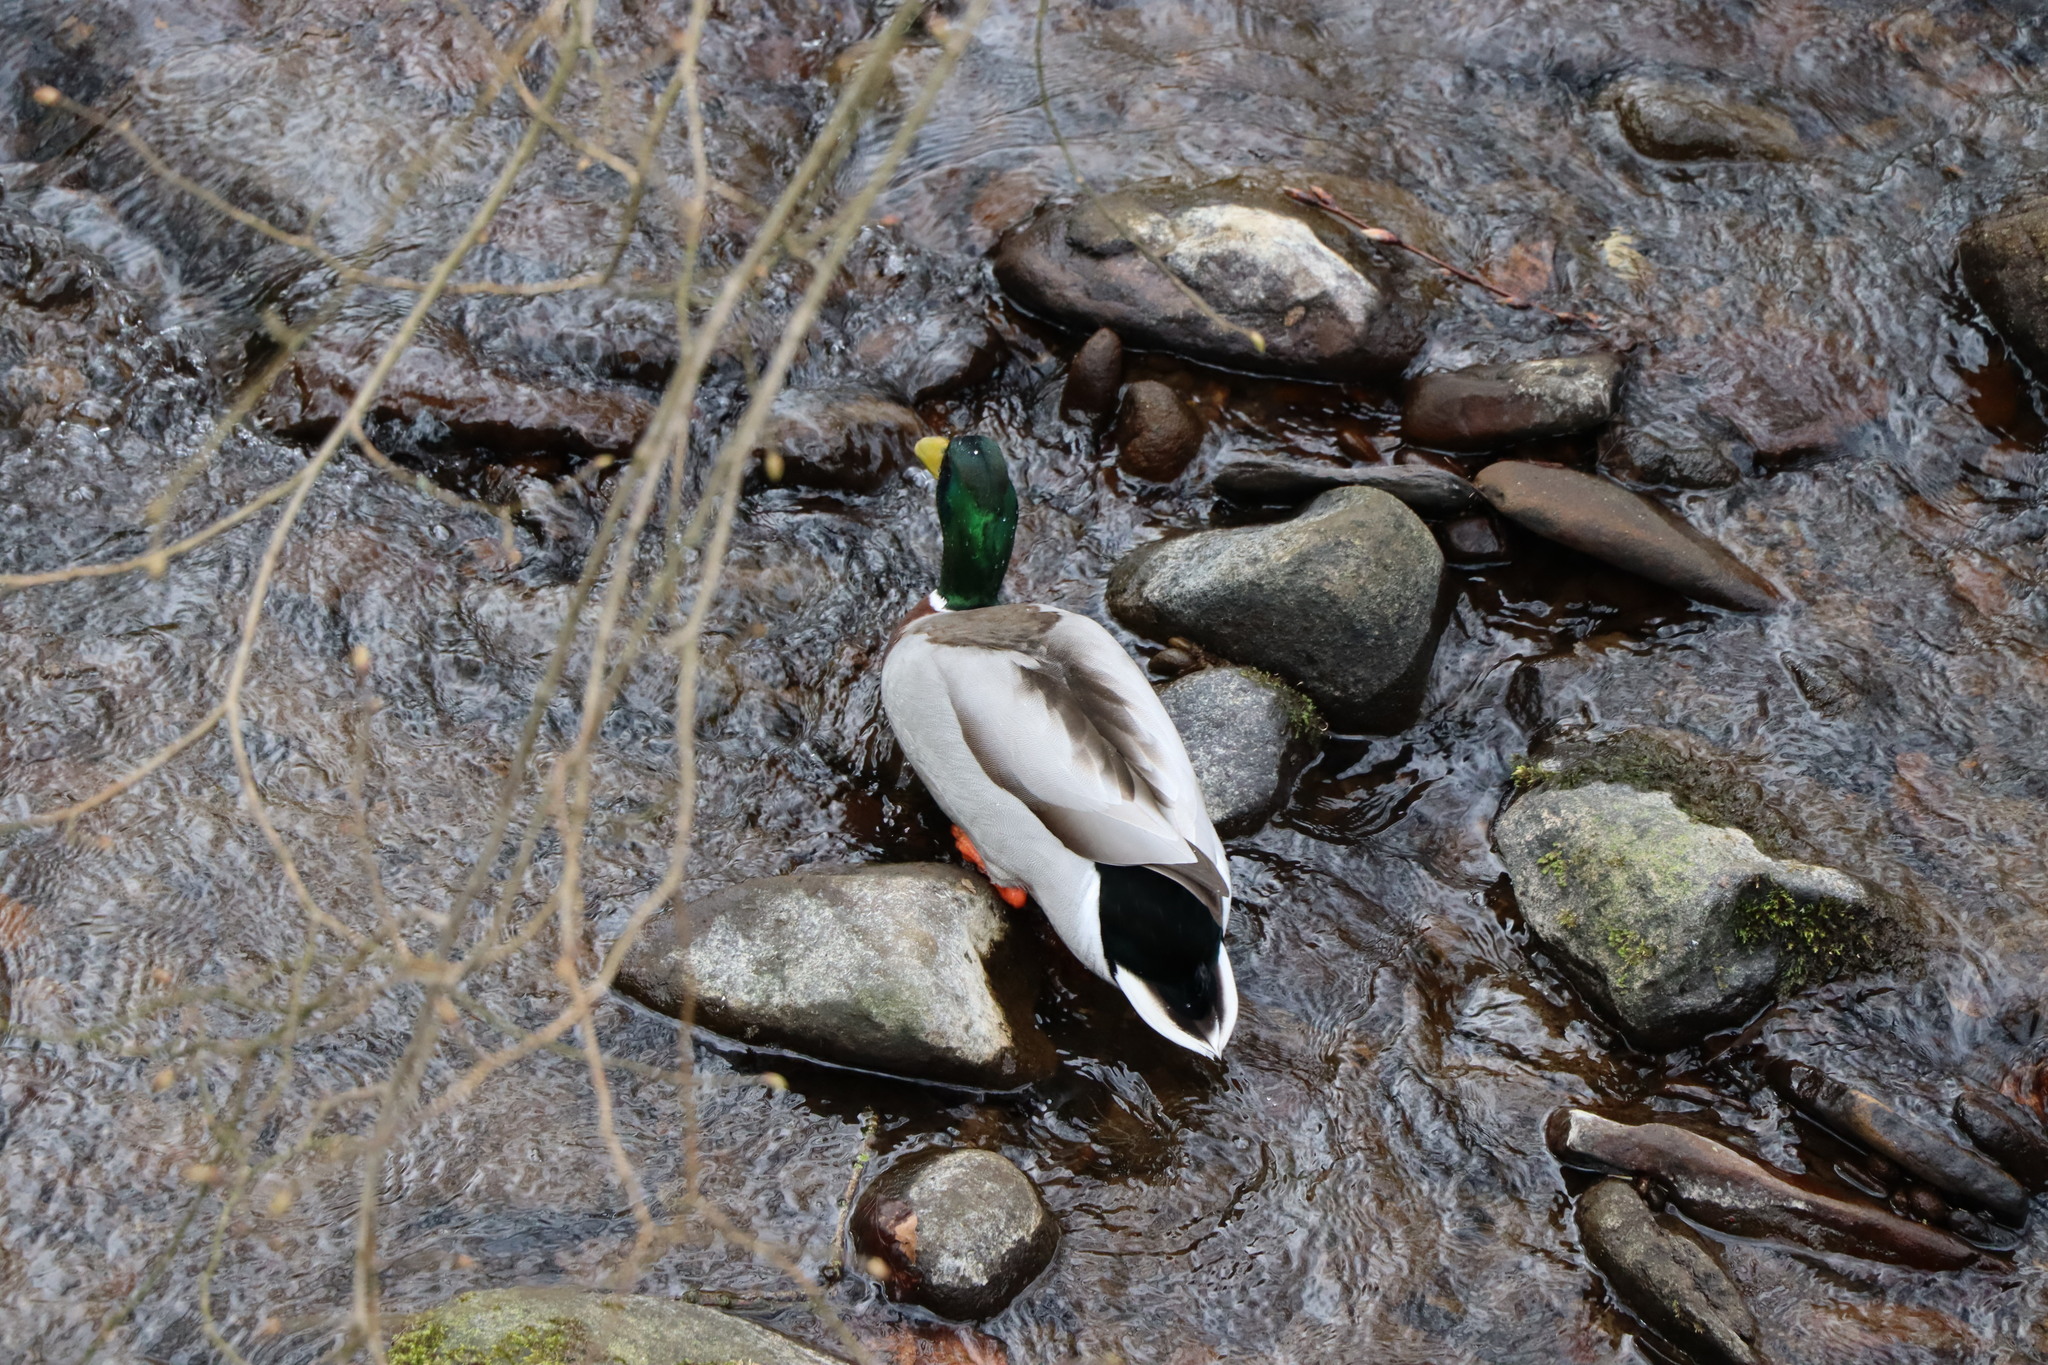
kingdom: Animalia
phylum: Chordata
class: Aves
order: Anseriformes
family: Anatidae
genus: Anas
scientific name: Anas platyrhynchos
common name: Mallard
